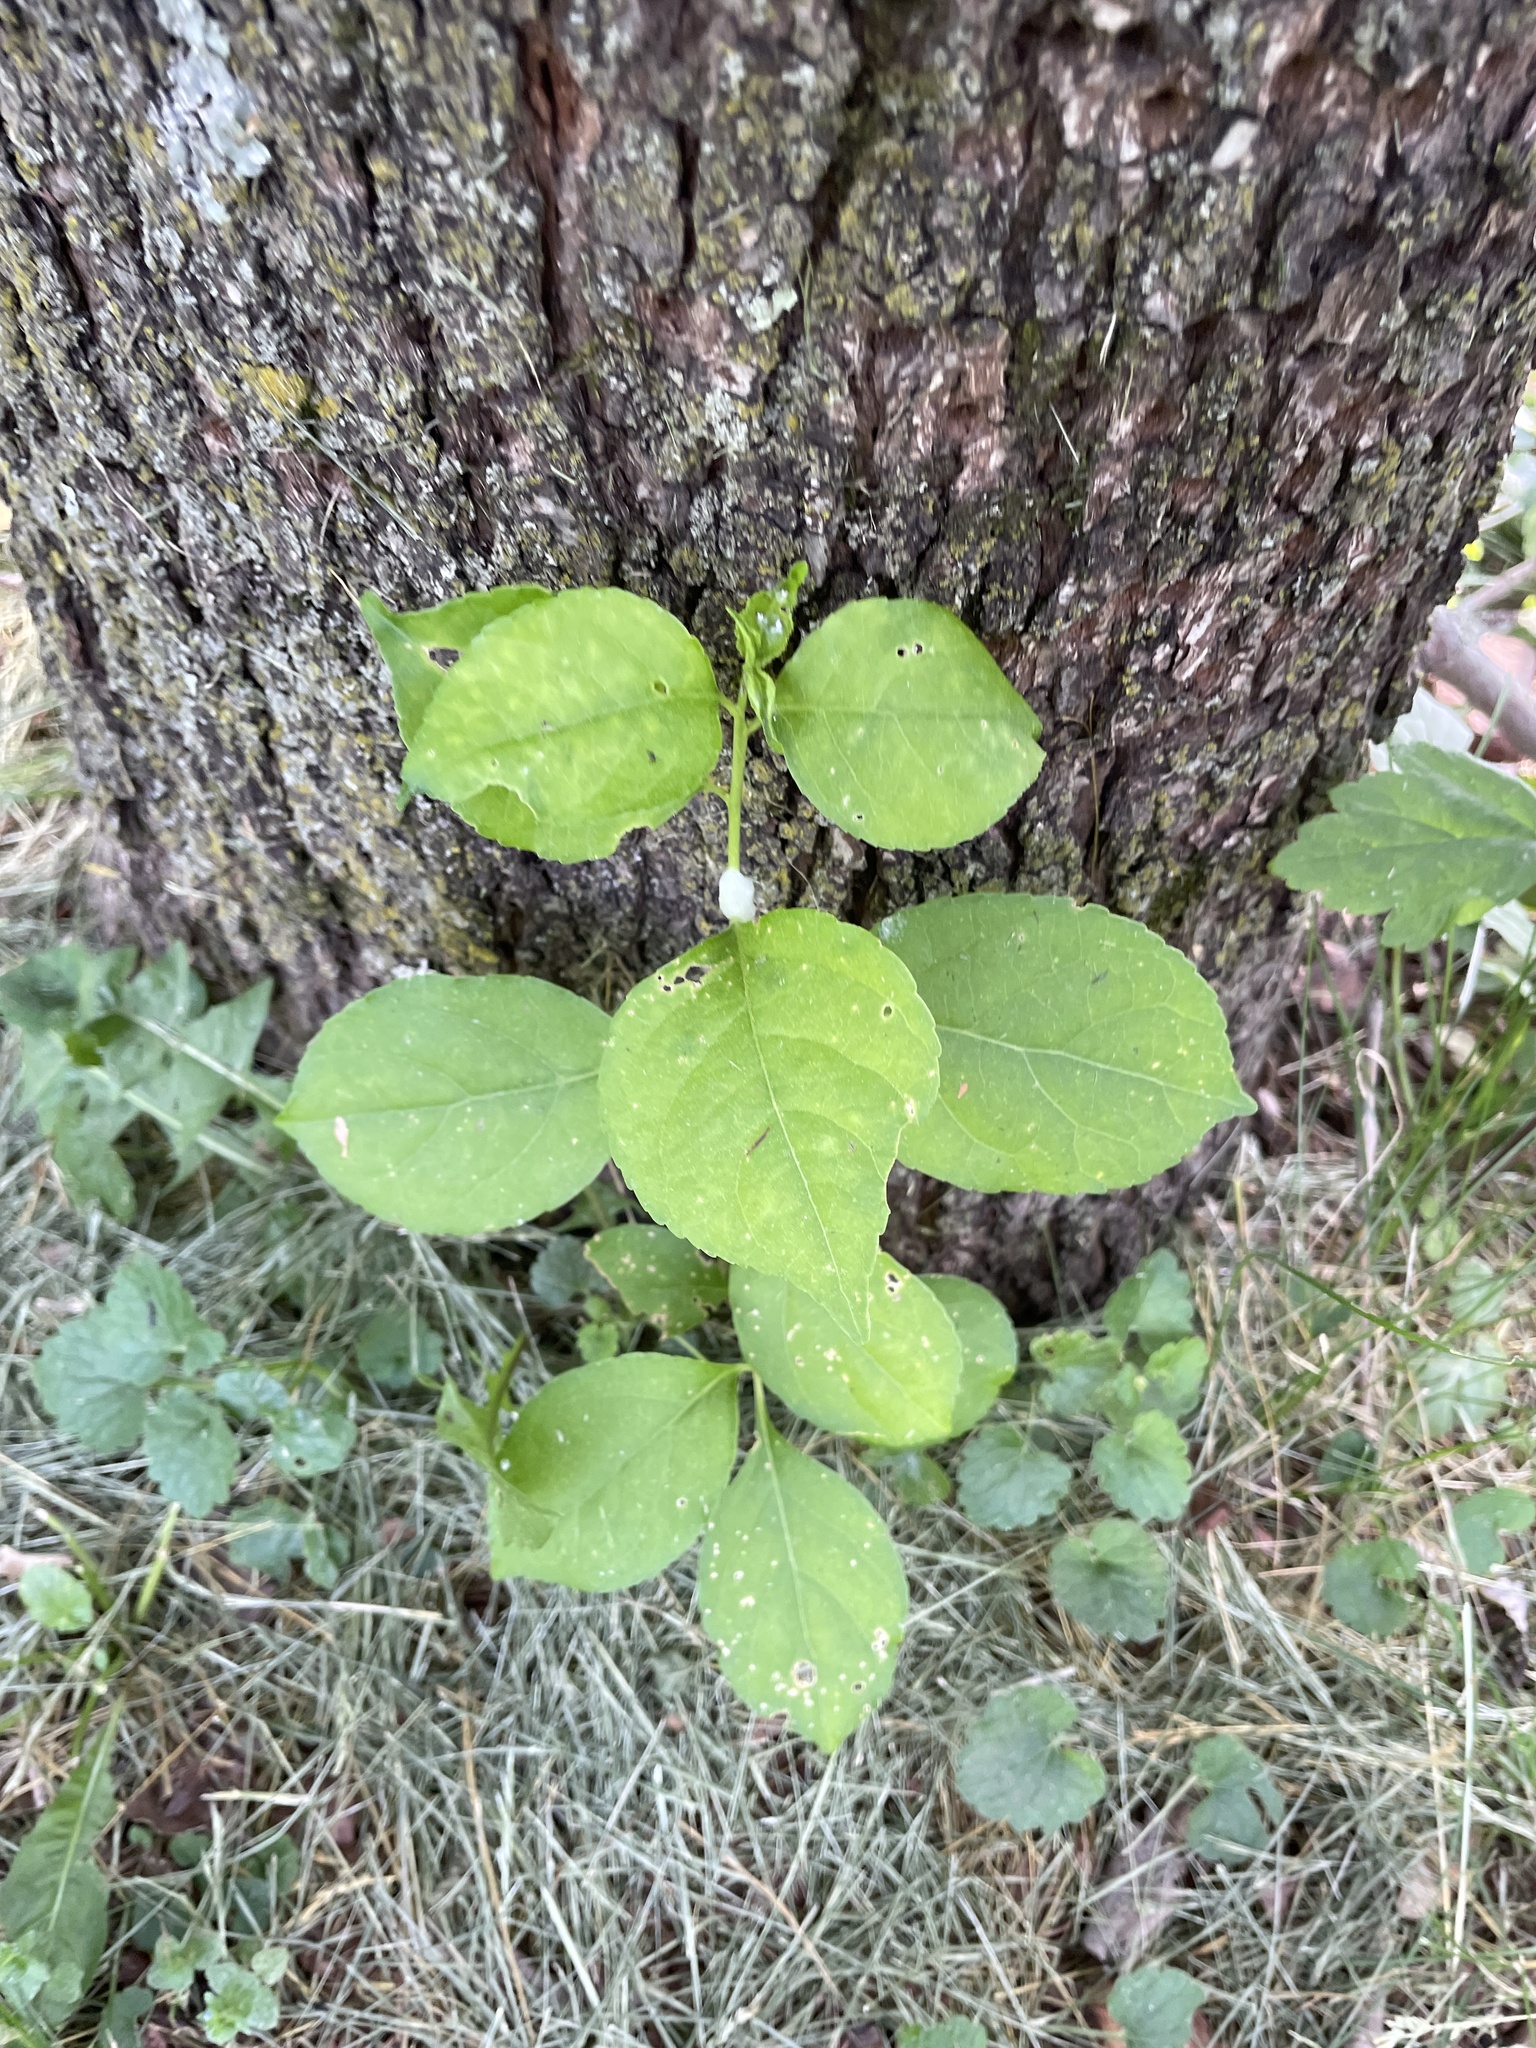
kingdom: Plantae
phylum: Tracheophyta
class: Magnoliopsida
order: Celastrales
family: Celastraceae
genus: Celastrus
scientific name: Celastrus orbiculatus
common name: Oriental bittersweet
